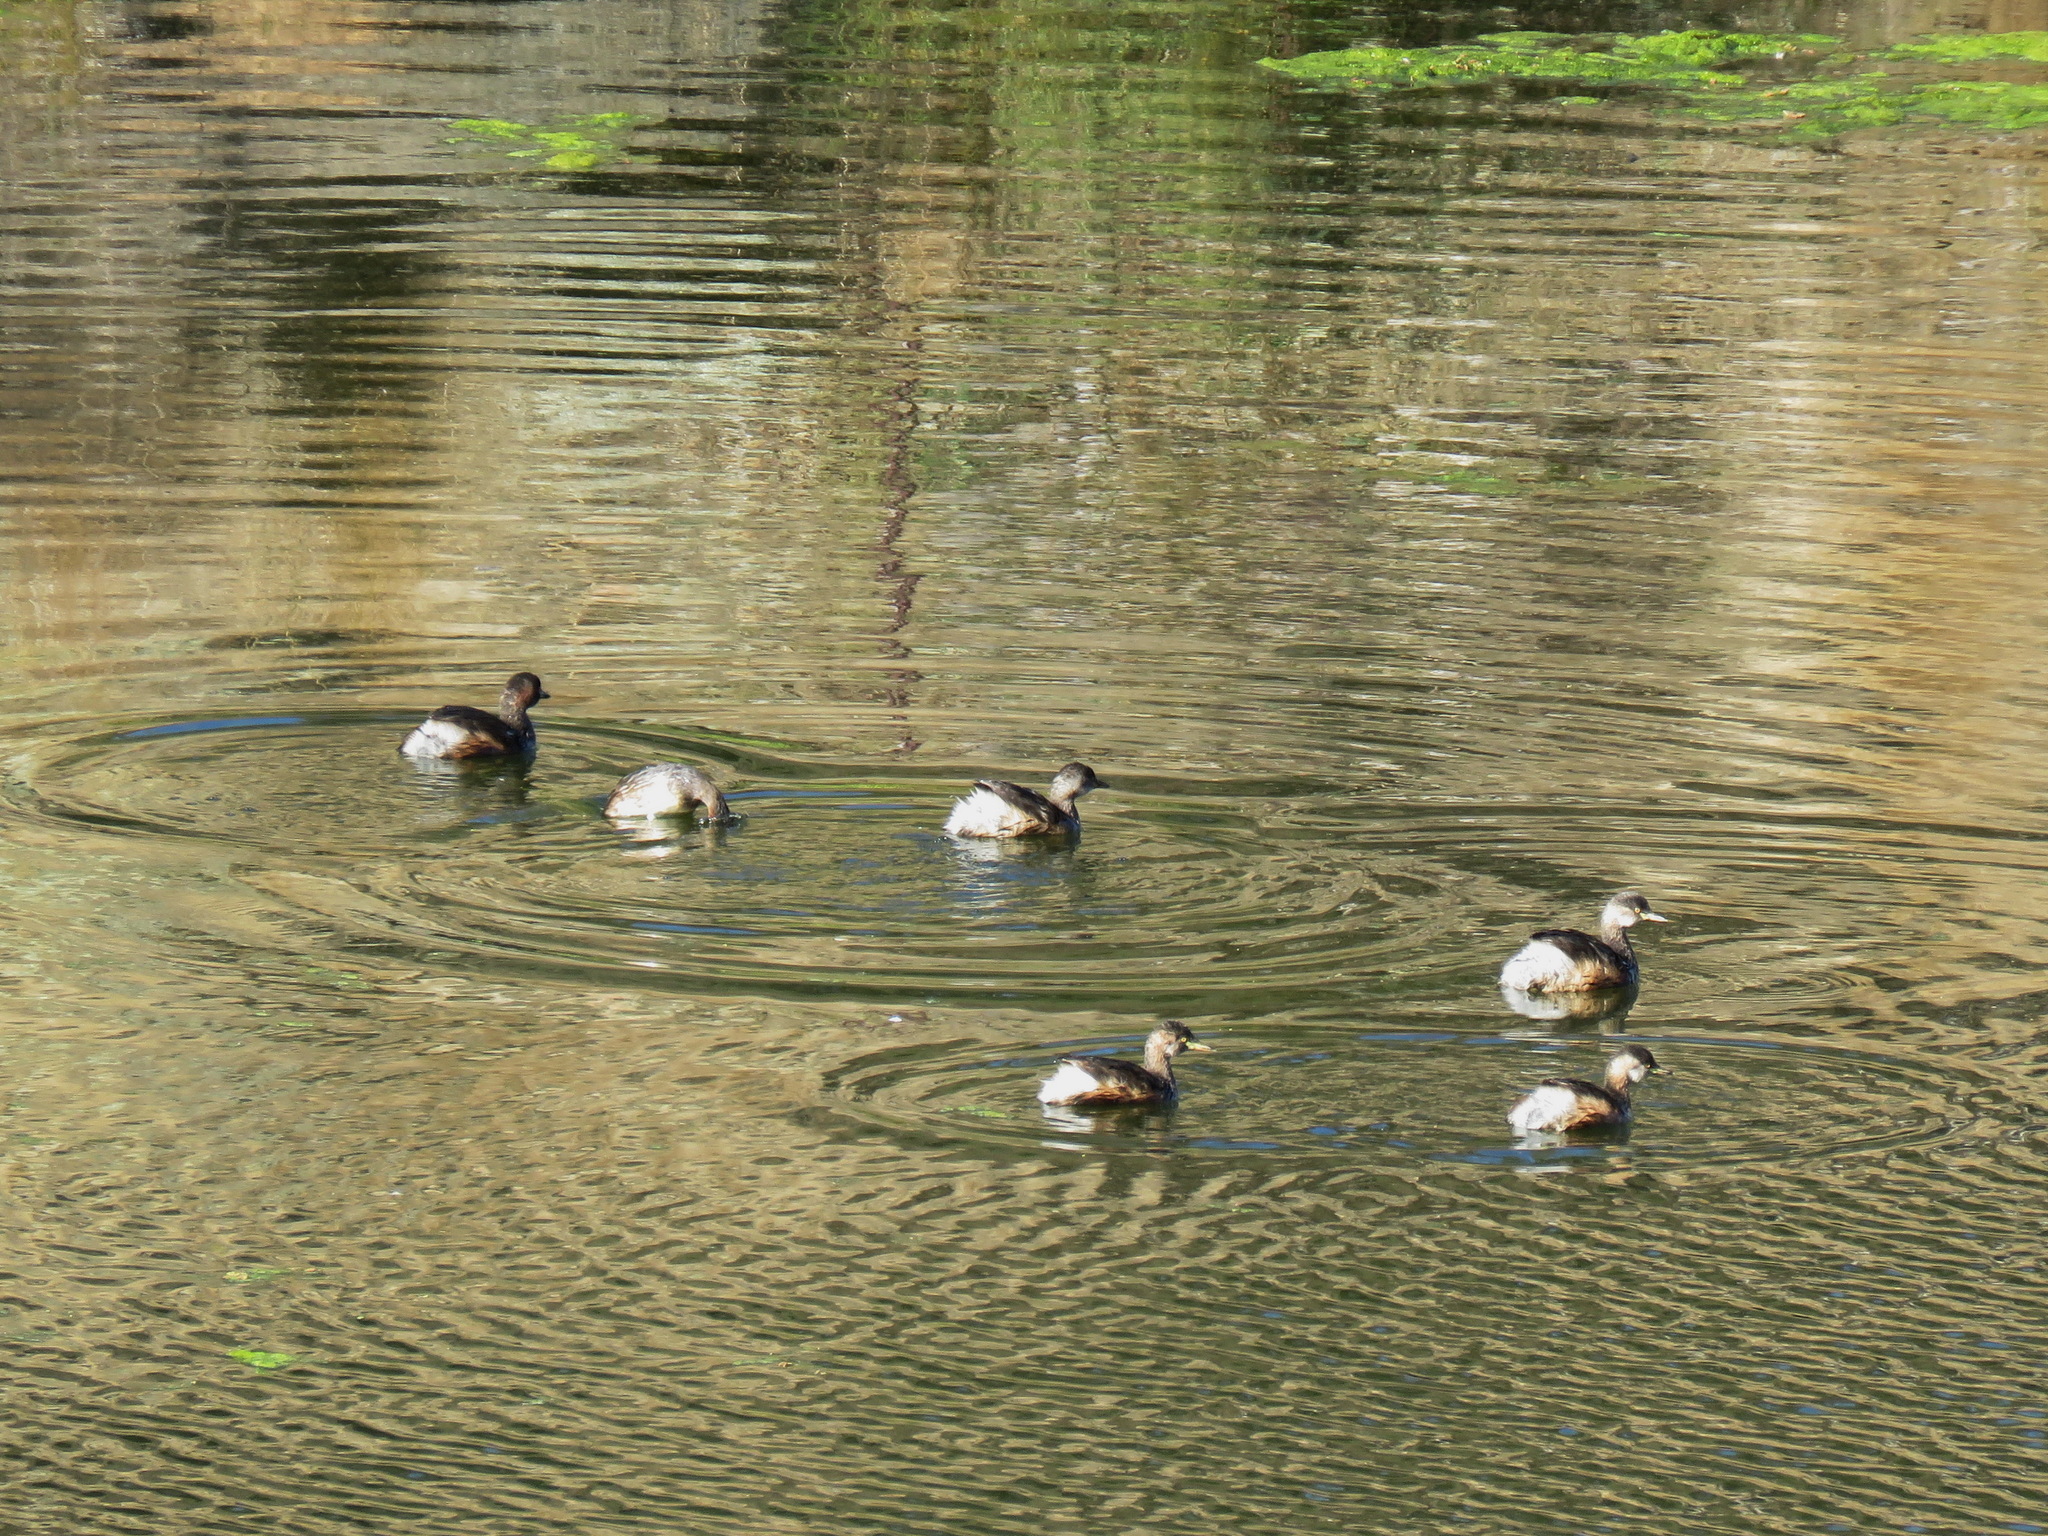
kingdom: Animalia
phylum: Chordata
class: Aves
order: Podicipediformes
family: Podicipedidae
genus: Tachybaptus
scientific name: Tachybaptus novaehollandiae
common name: Australasian grebe
